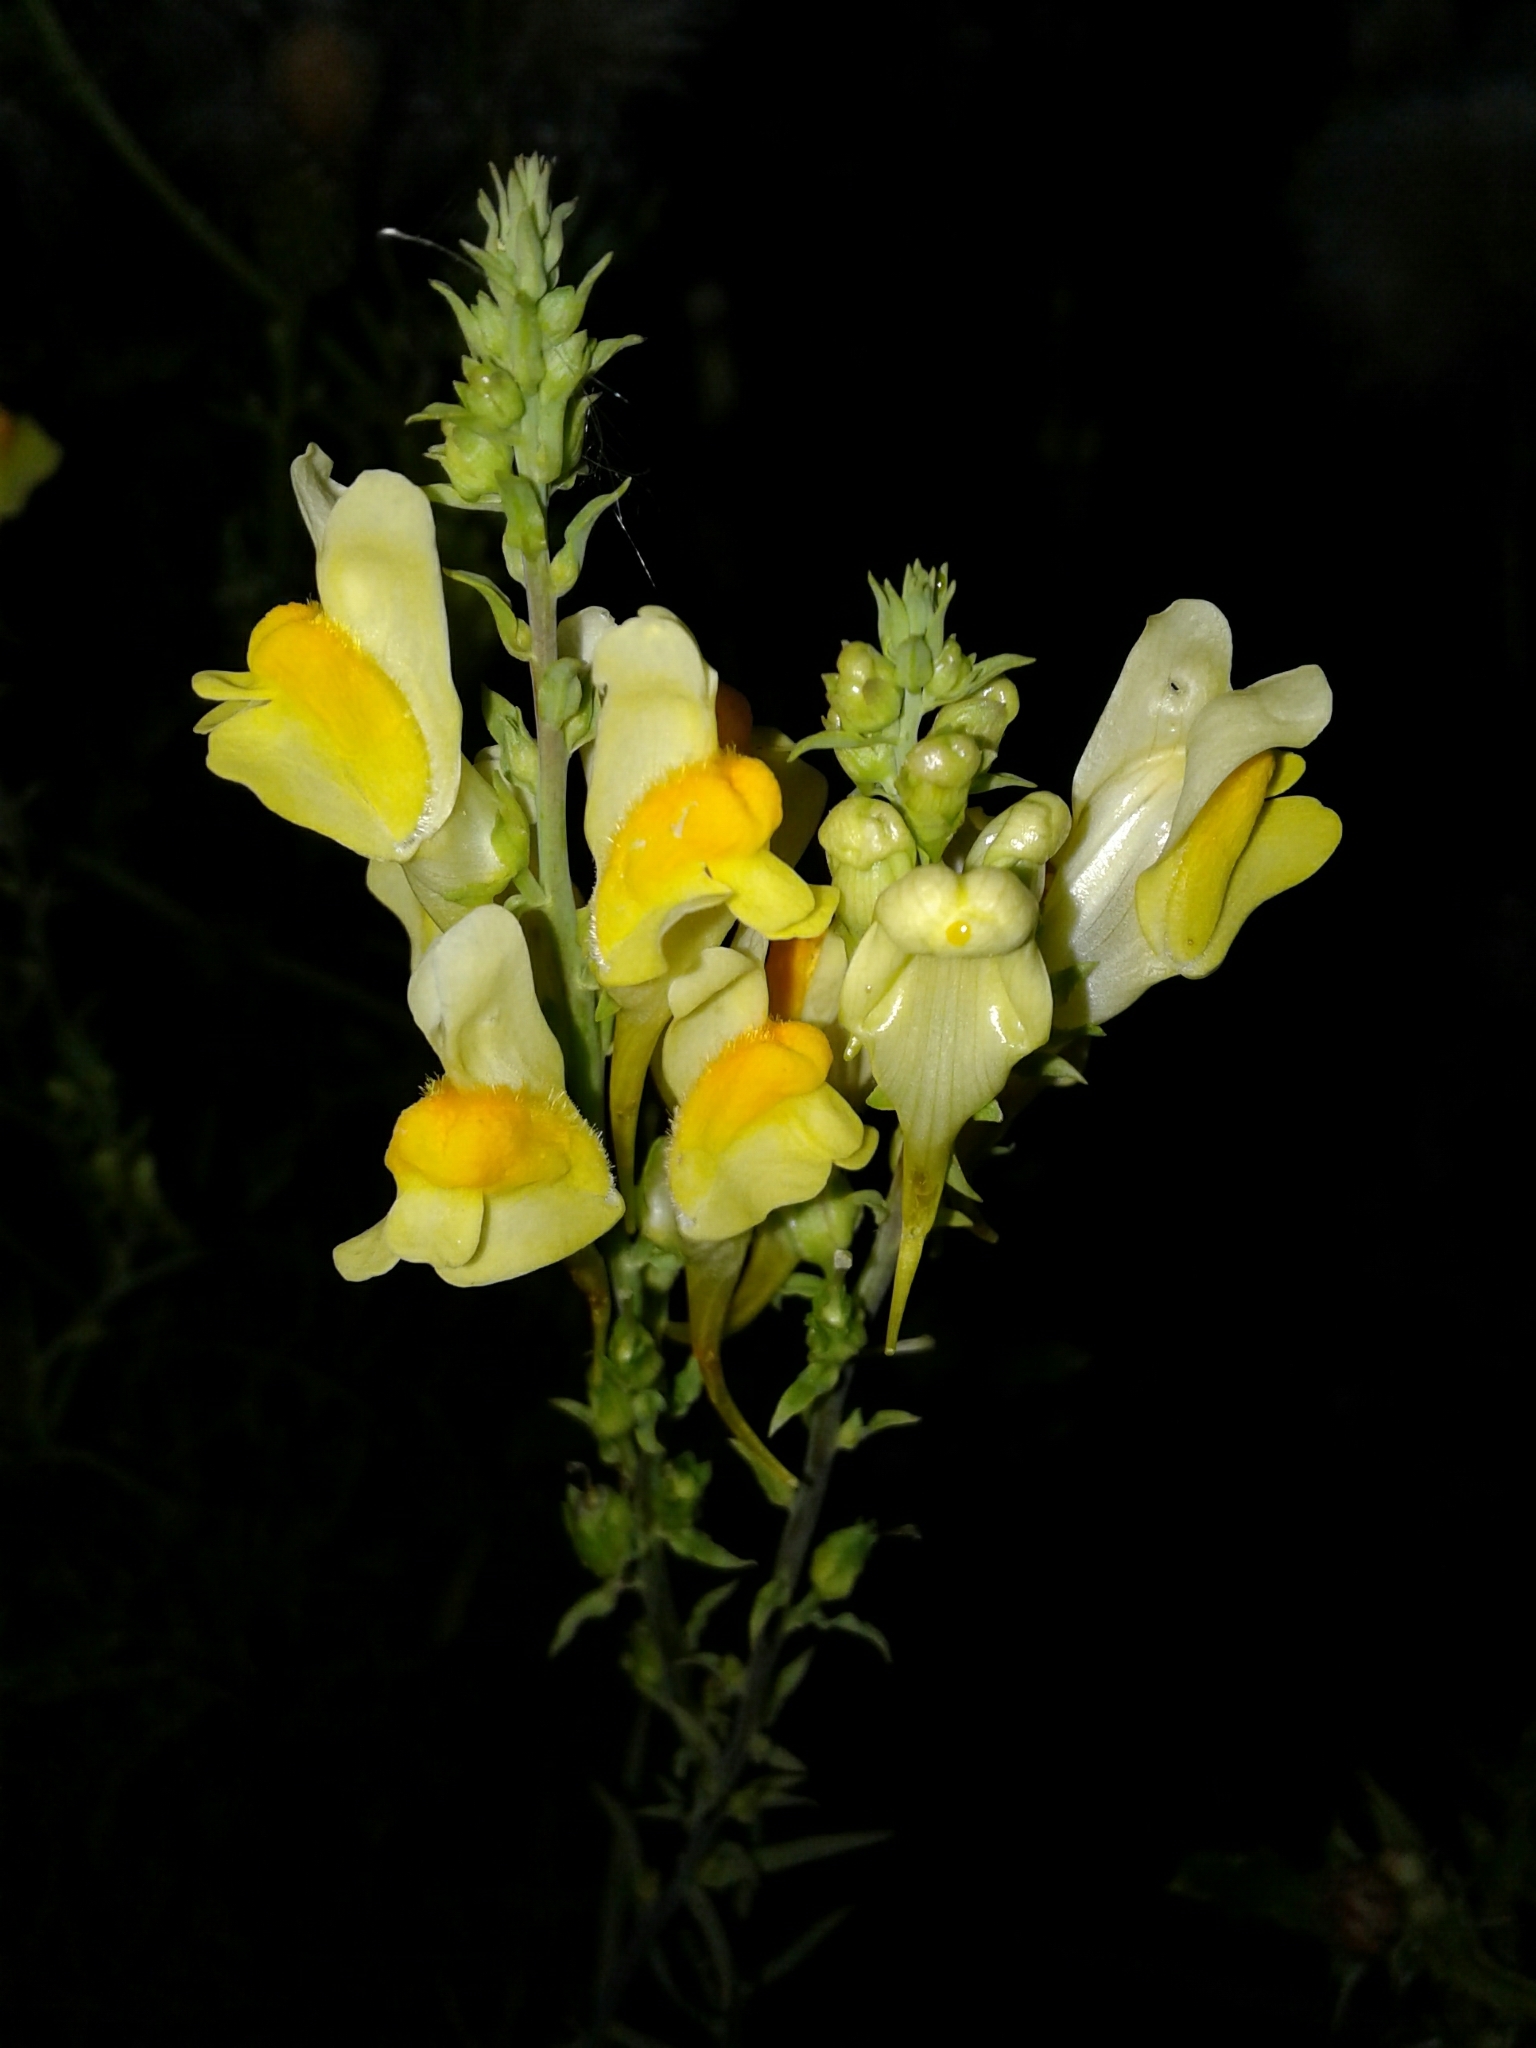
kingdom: Plantae
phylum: Tracheophyta
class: Magnoliopsida
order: Lamiales
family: Plantaginaceae
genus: Linaria
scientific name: Linaria vulgaris
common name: Butter and eggs
